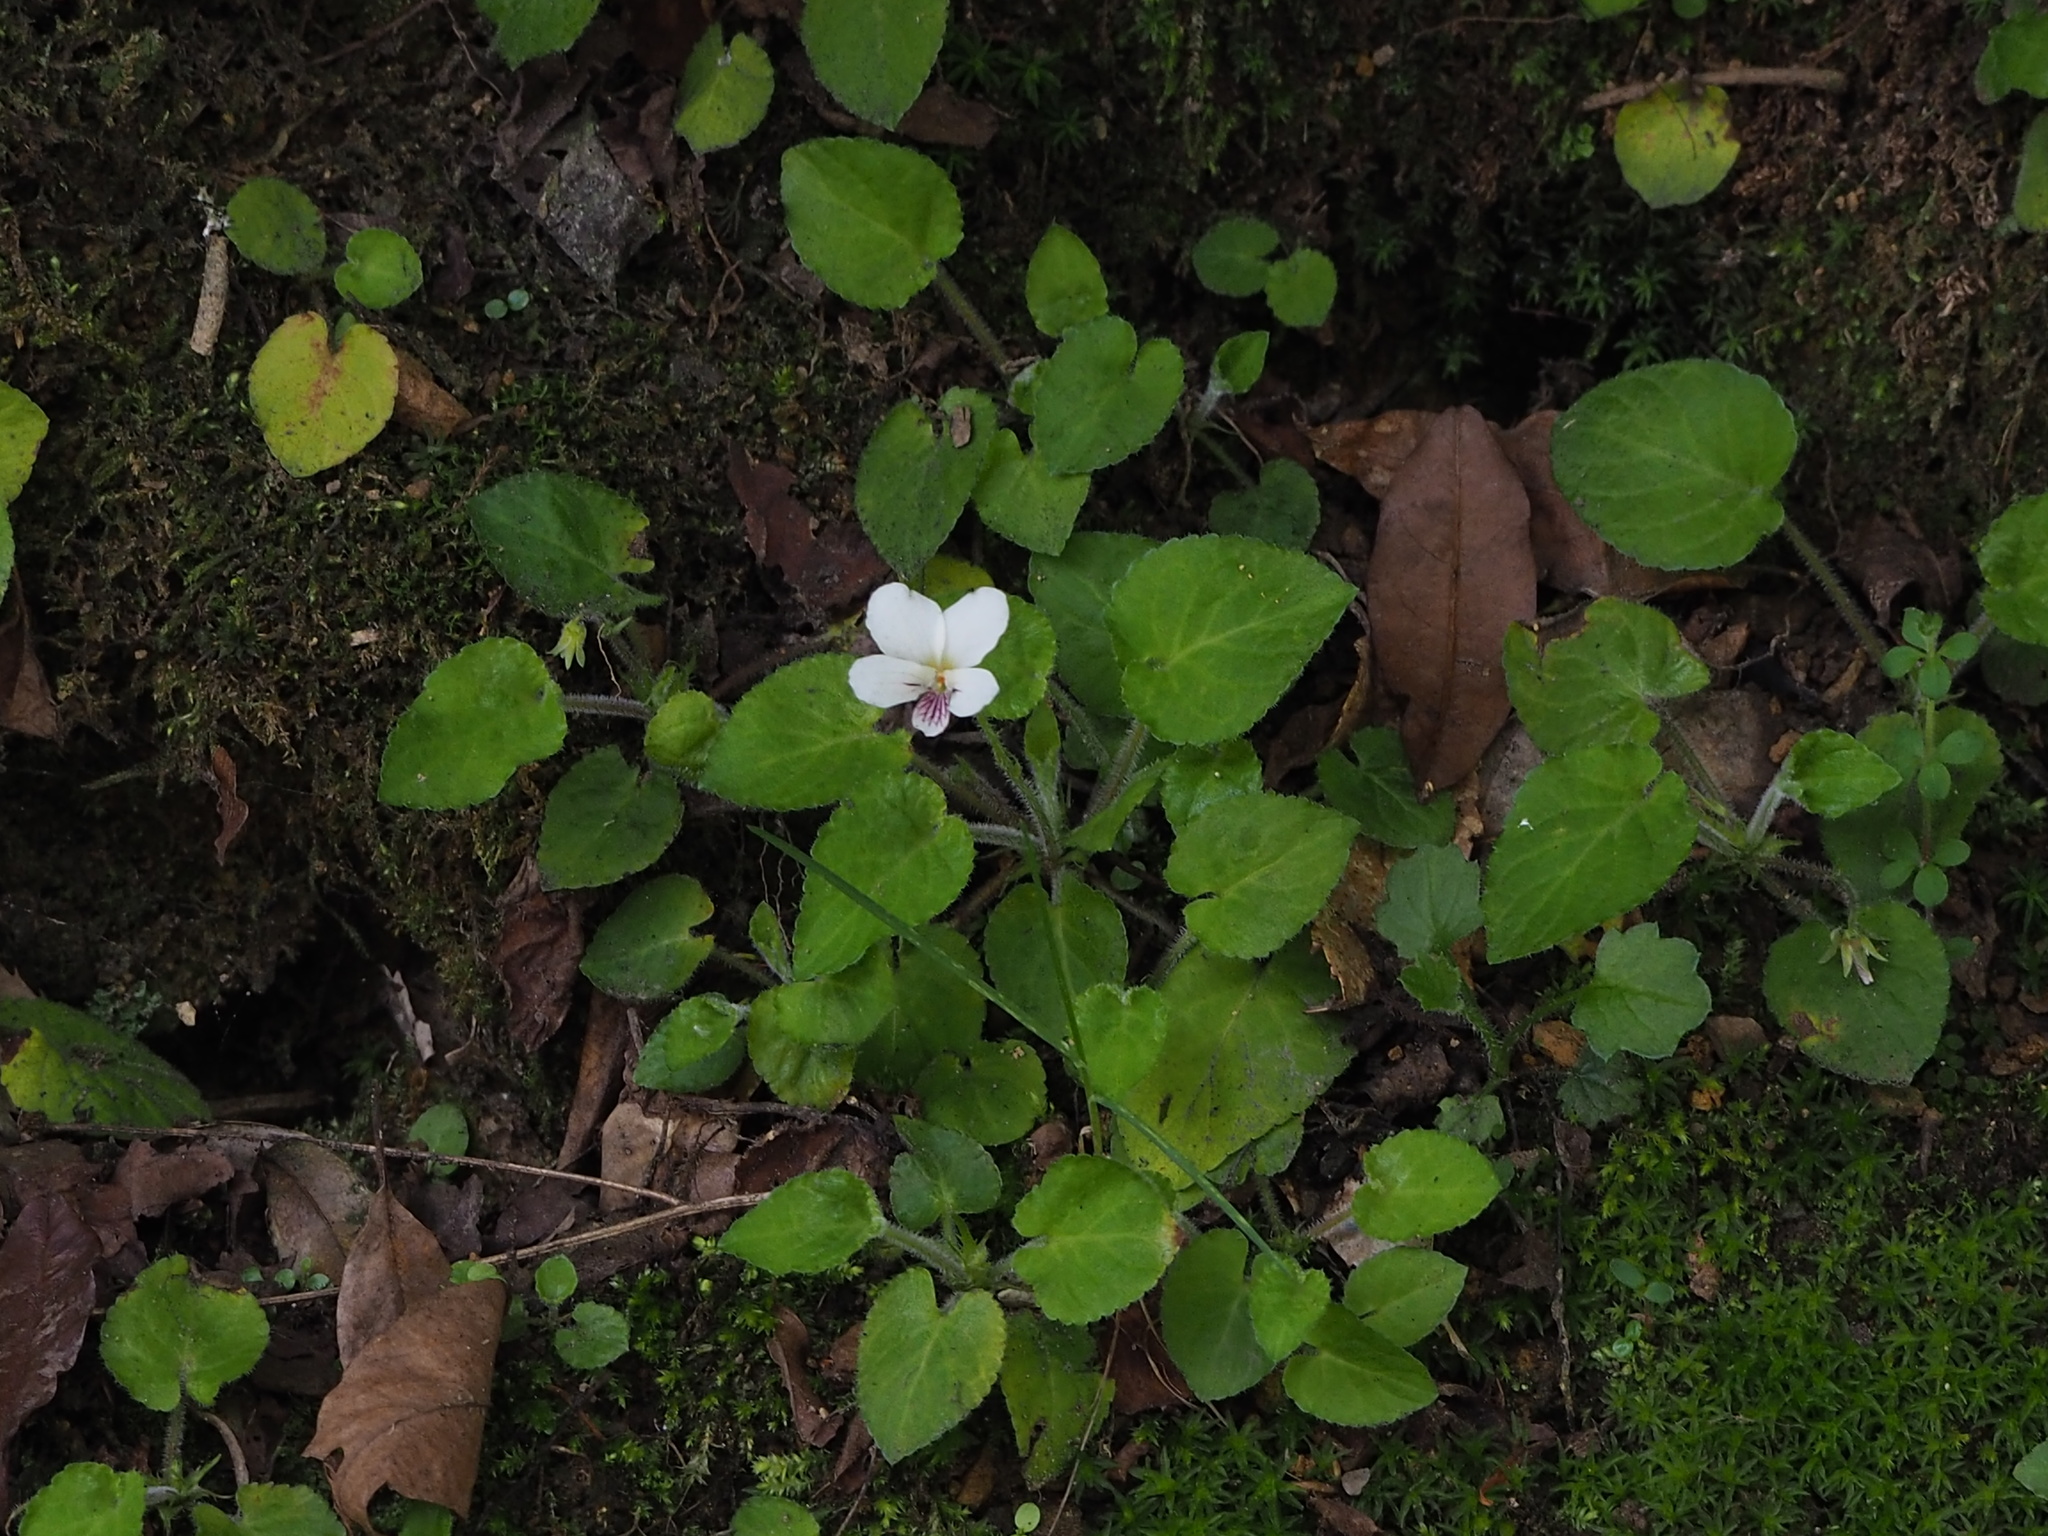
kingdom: Plantae
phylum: Tracheophyta
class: Magnoliopsida
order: Malpighiales
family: Violaceae
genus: Viola
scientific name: Viola adenothrix
